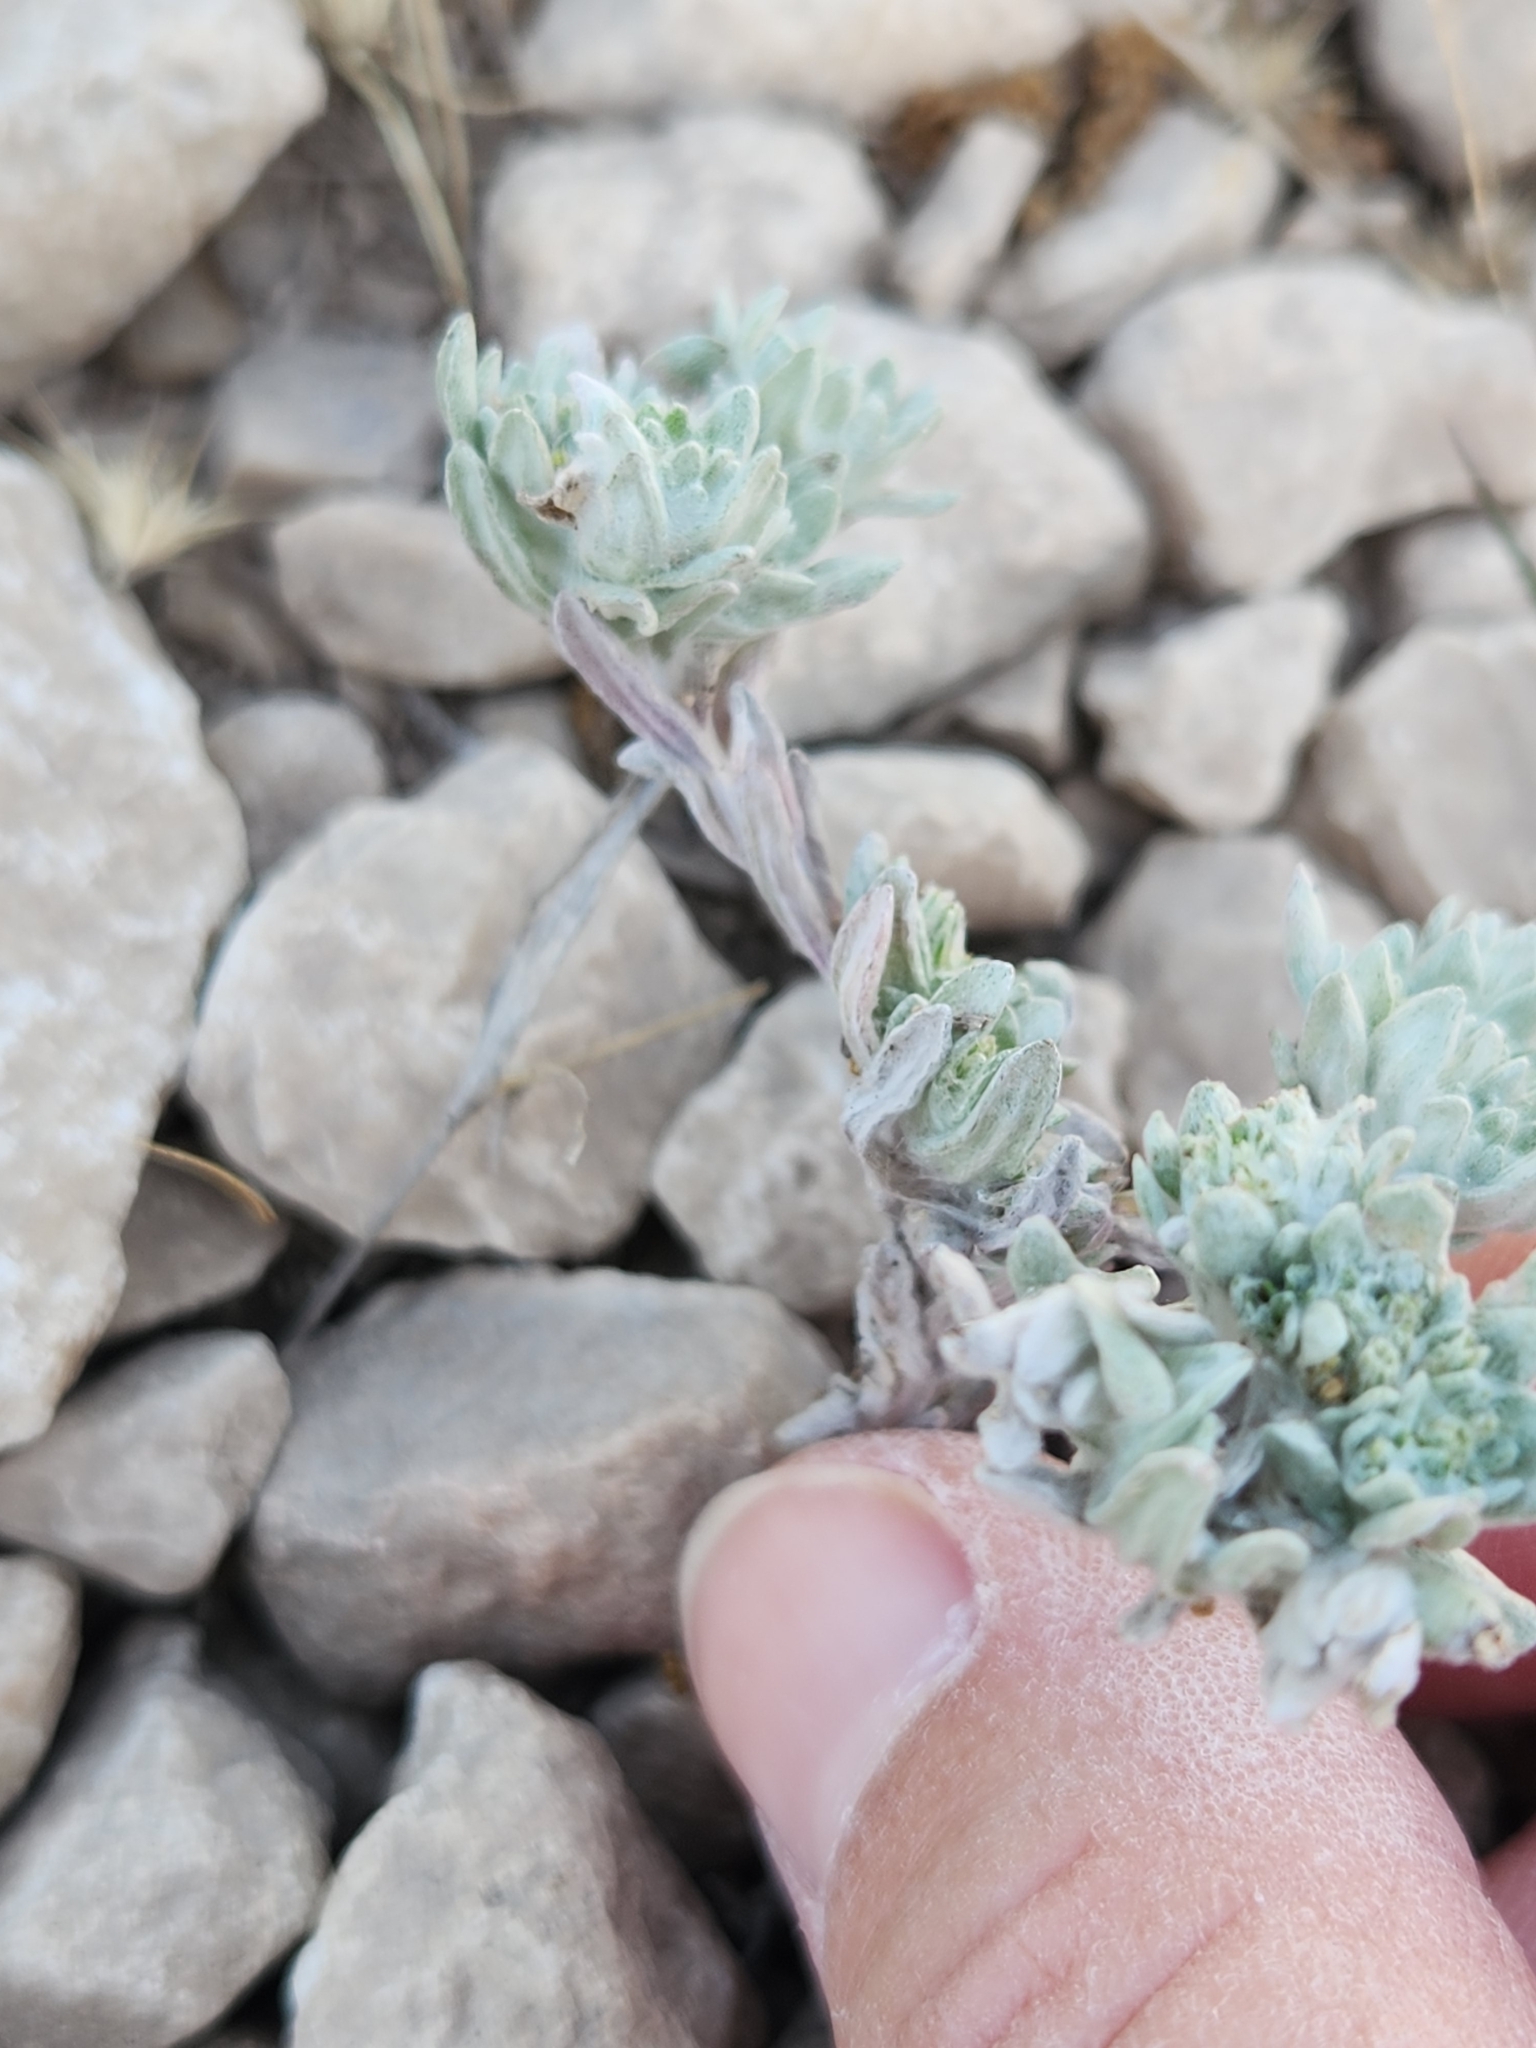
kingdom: Plantae
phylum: Tracheophyta
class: Magnoliopsida
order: Asterales
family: Asteraceae
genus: Diaperia
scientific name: Diaperia prolifera
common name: Big-head rabbit-tobacco
